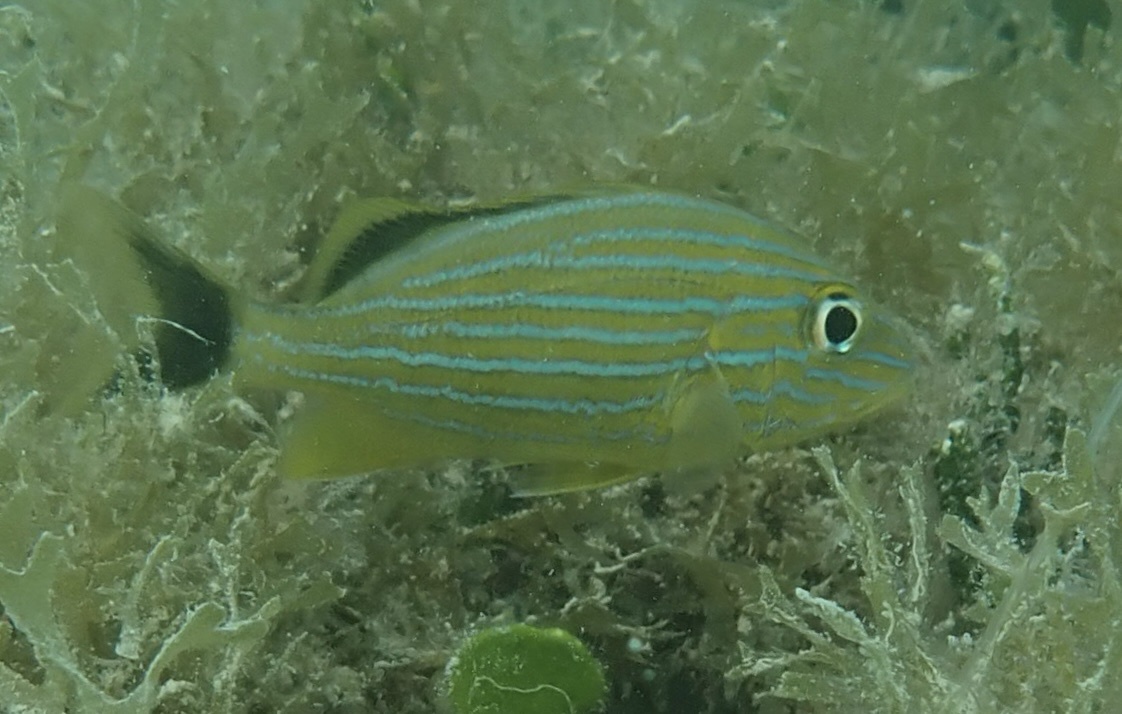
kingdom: Animalia
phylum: Chordata
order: Perciformes
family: Haemulidae
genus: Haemulon
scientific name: Haemulon sciurus
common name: Bluestriped grunt
